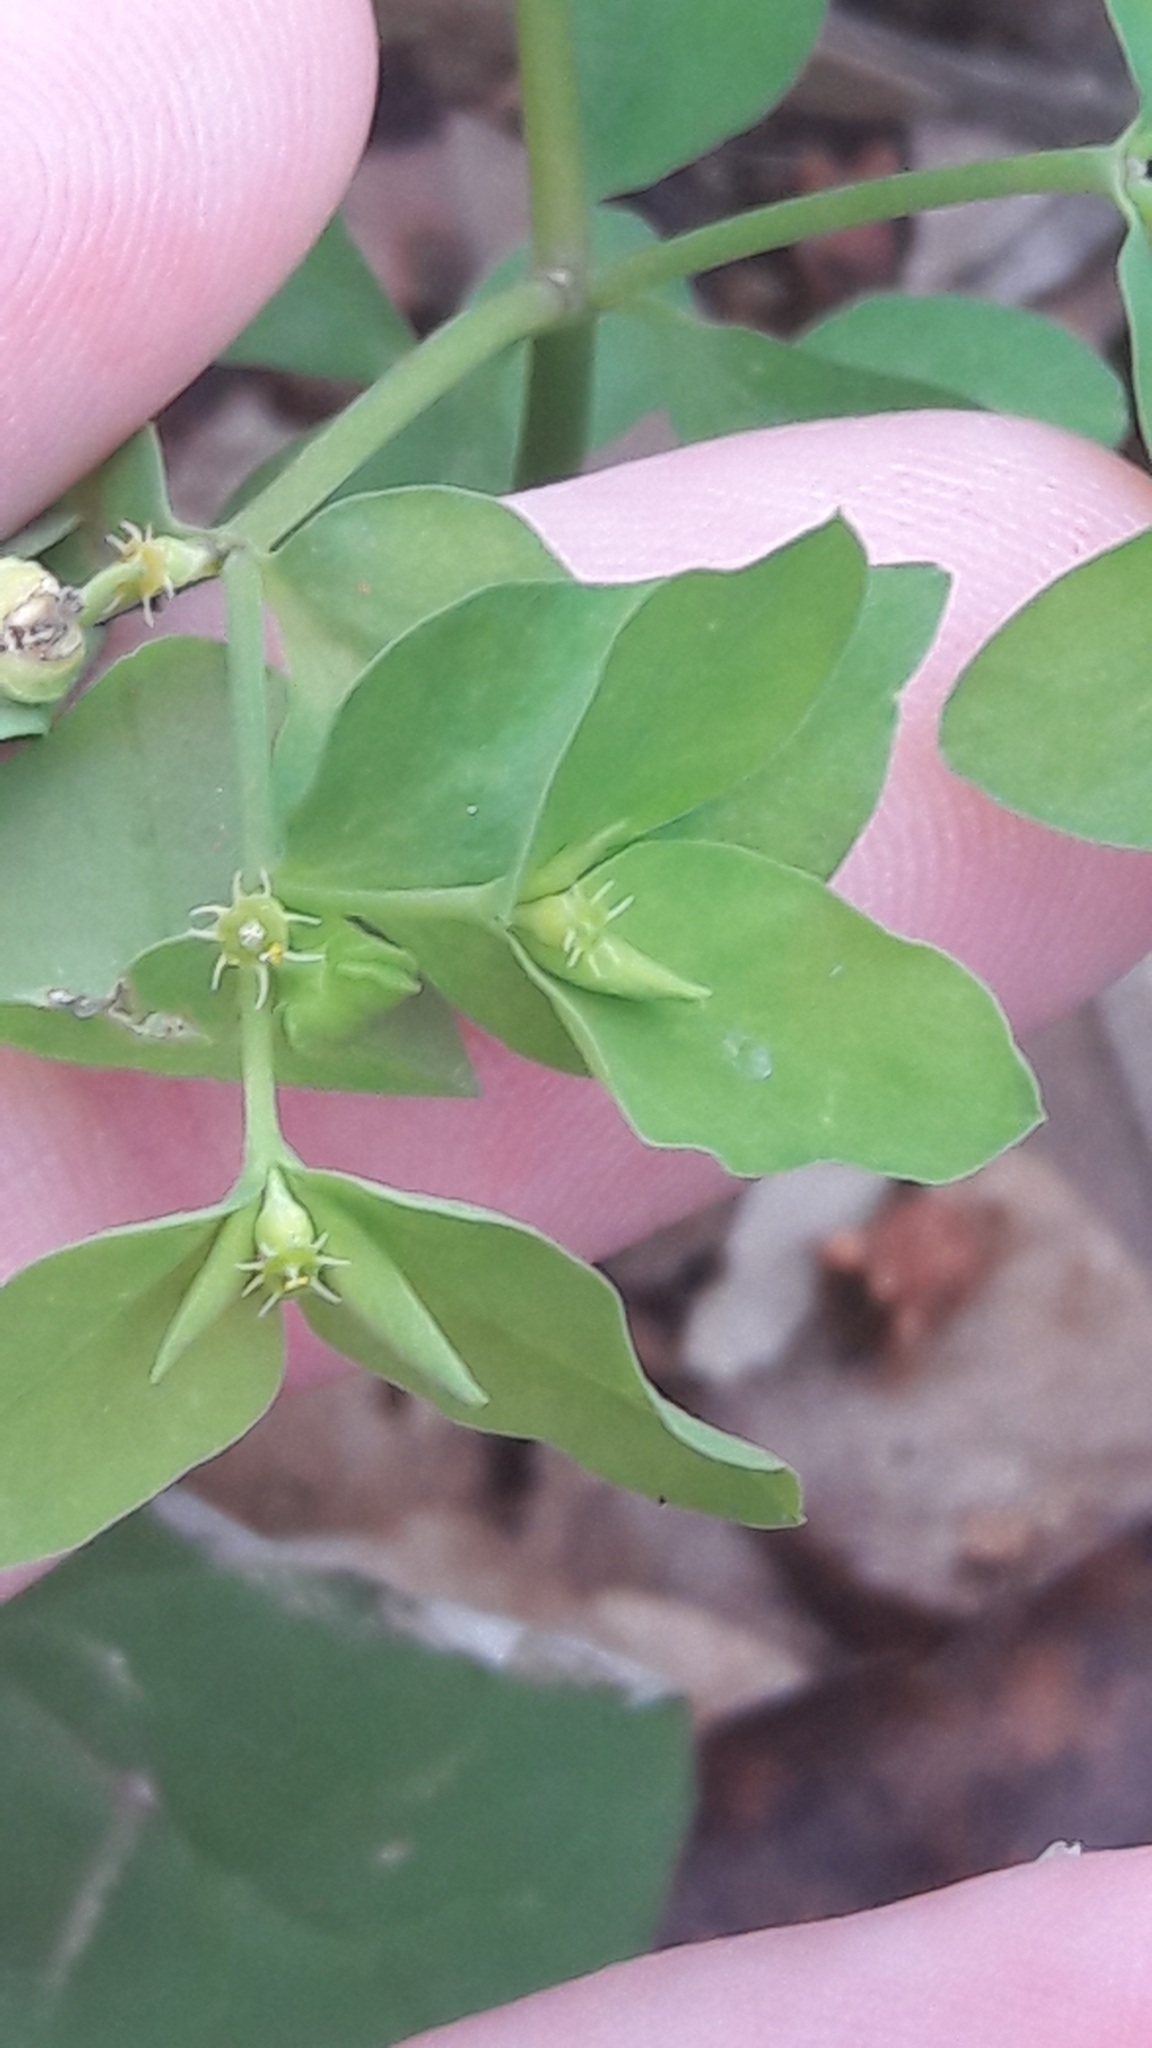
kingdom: Plantae
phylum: Tracheophyta
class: Magnoliopsida
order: Malpighiales
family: Euphorbiaceae
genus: Euphorbia
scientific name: Euphorbia peplus
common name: Petty spurge
